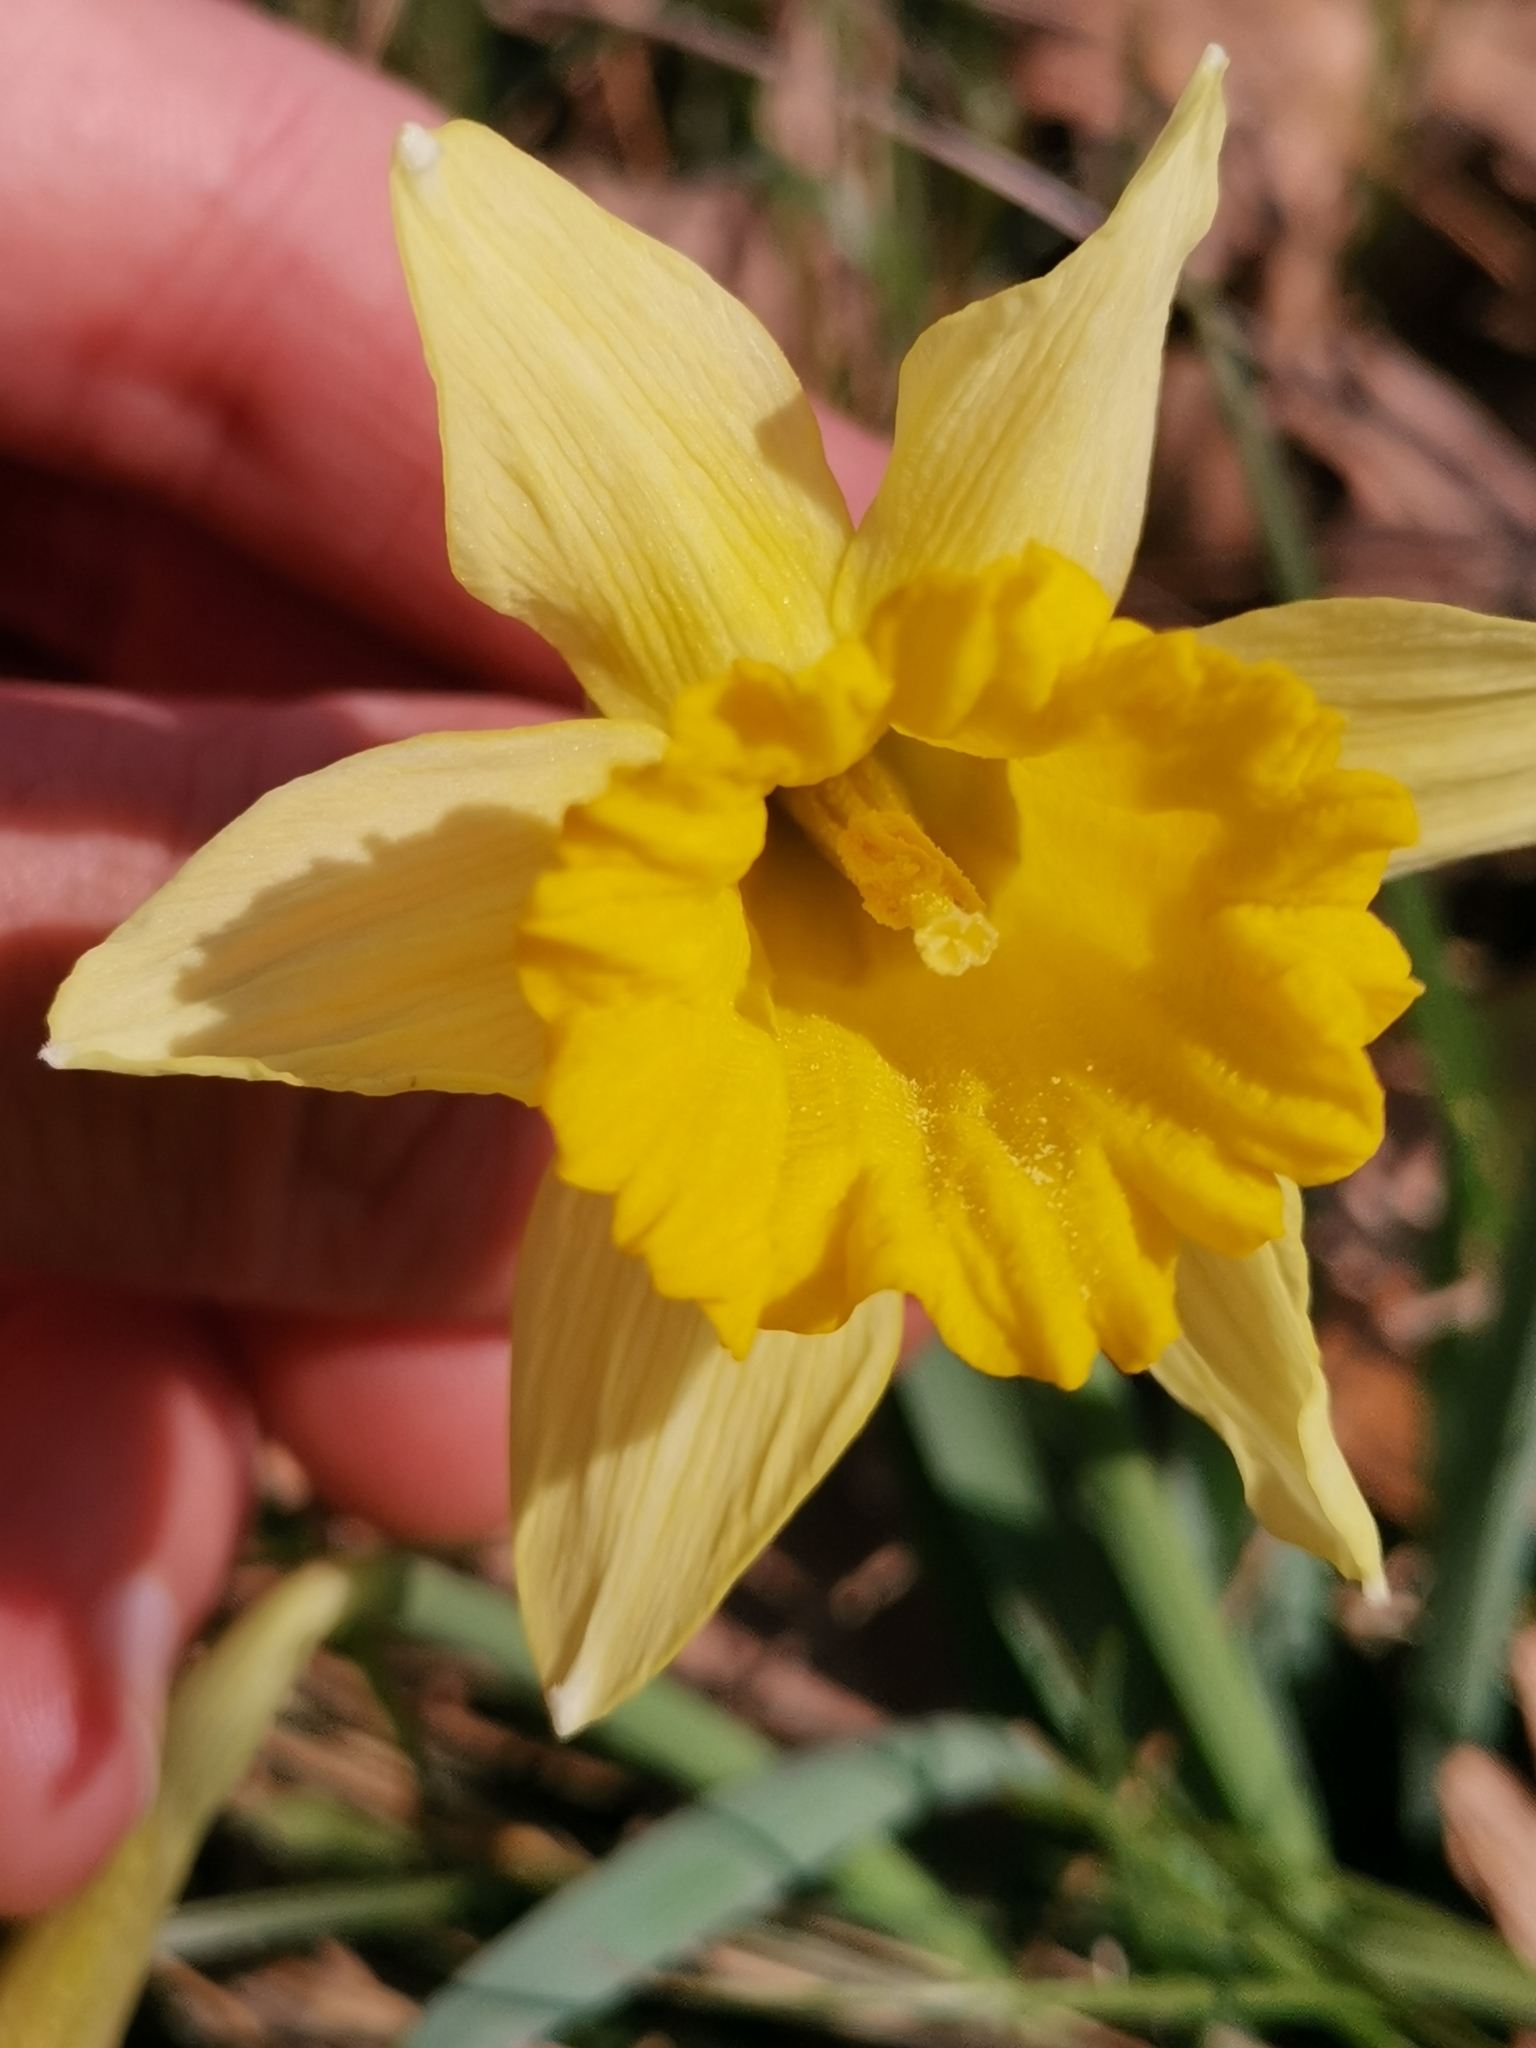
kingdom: Plantae
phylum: Tracheophyta
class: Liliopsida
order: Asparagales
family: Amaryllidaceae
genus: Narcissus
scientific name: Narcissus pseudonarcissus
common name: Daffodil
